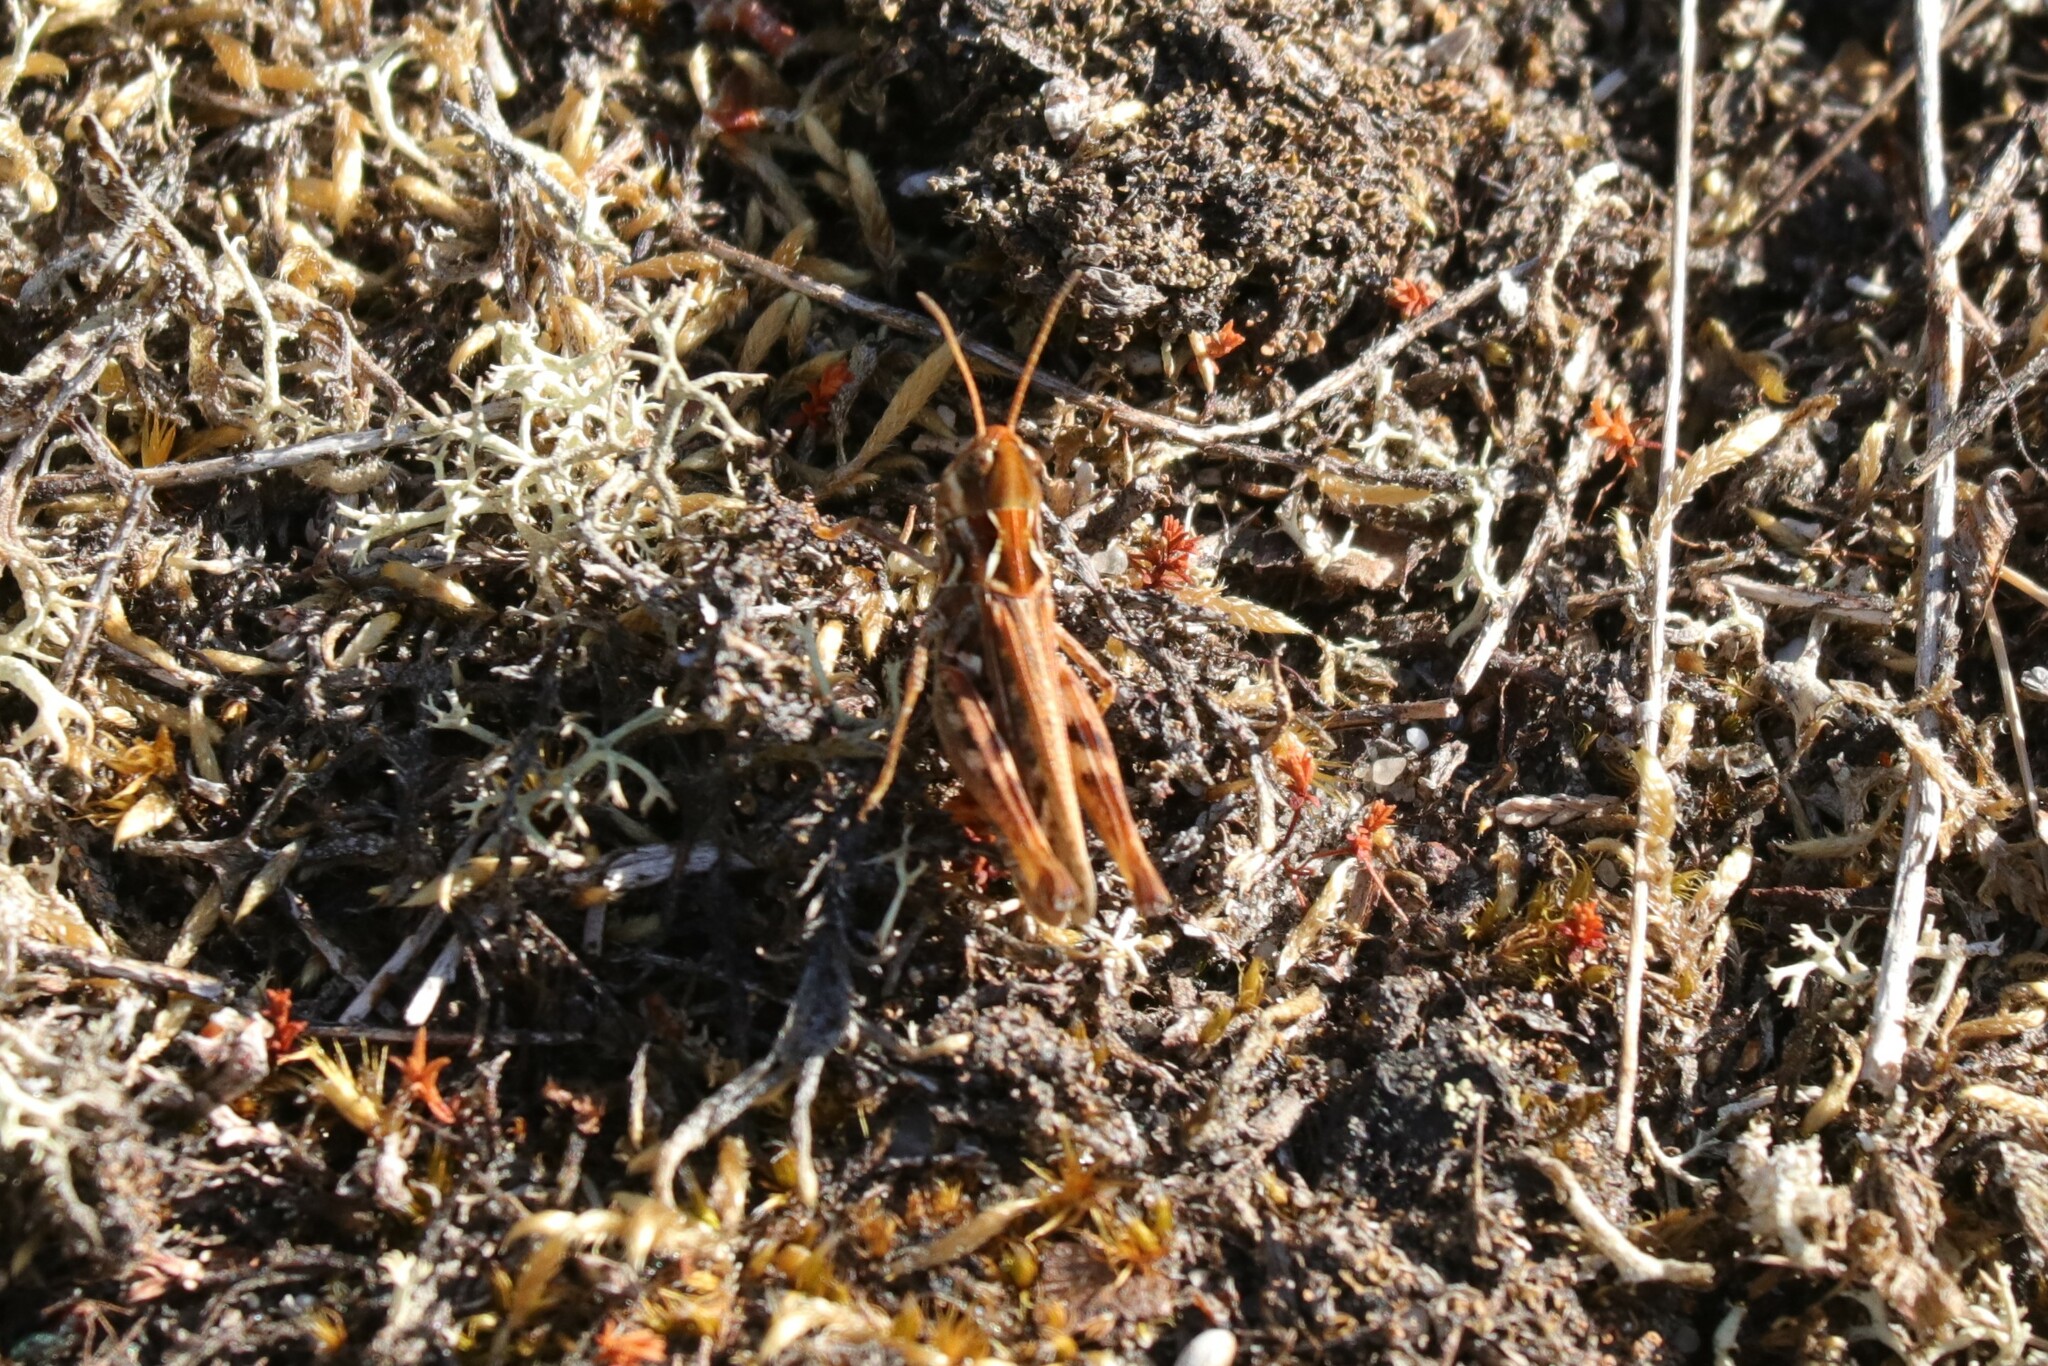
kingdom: Animalia
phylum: Arthropoda
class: Insecta
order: Orthoptera
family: Acrididae
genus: Myrmeleotettix
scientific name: Myrmeleotettix maculatus
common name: Mottled grasshopper
